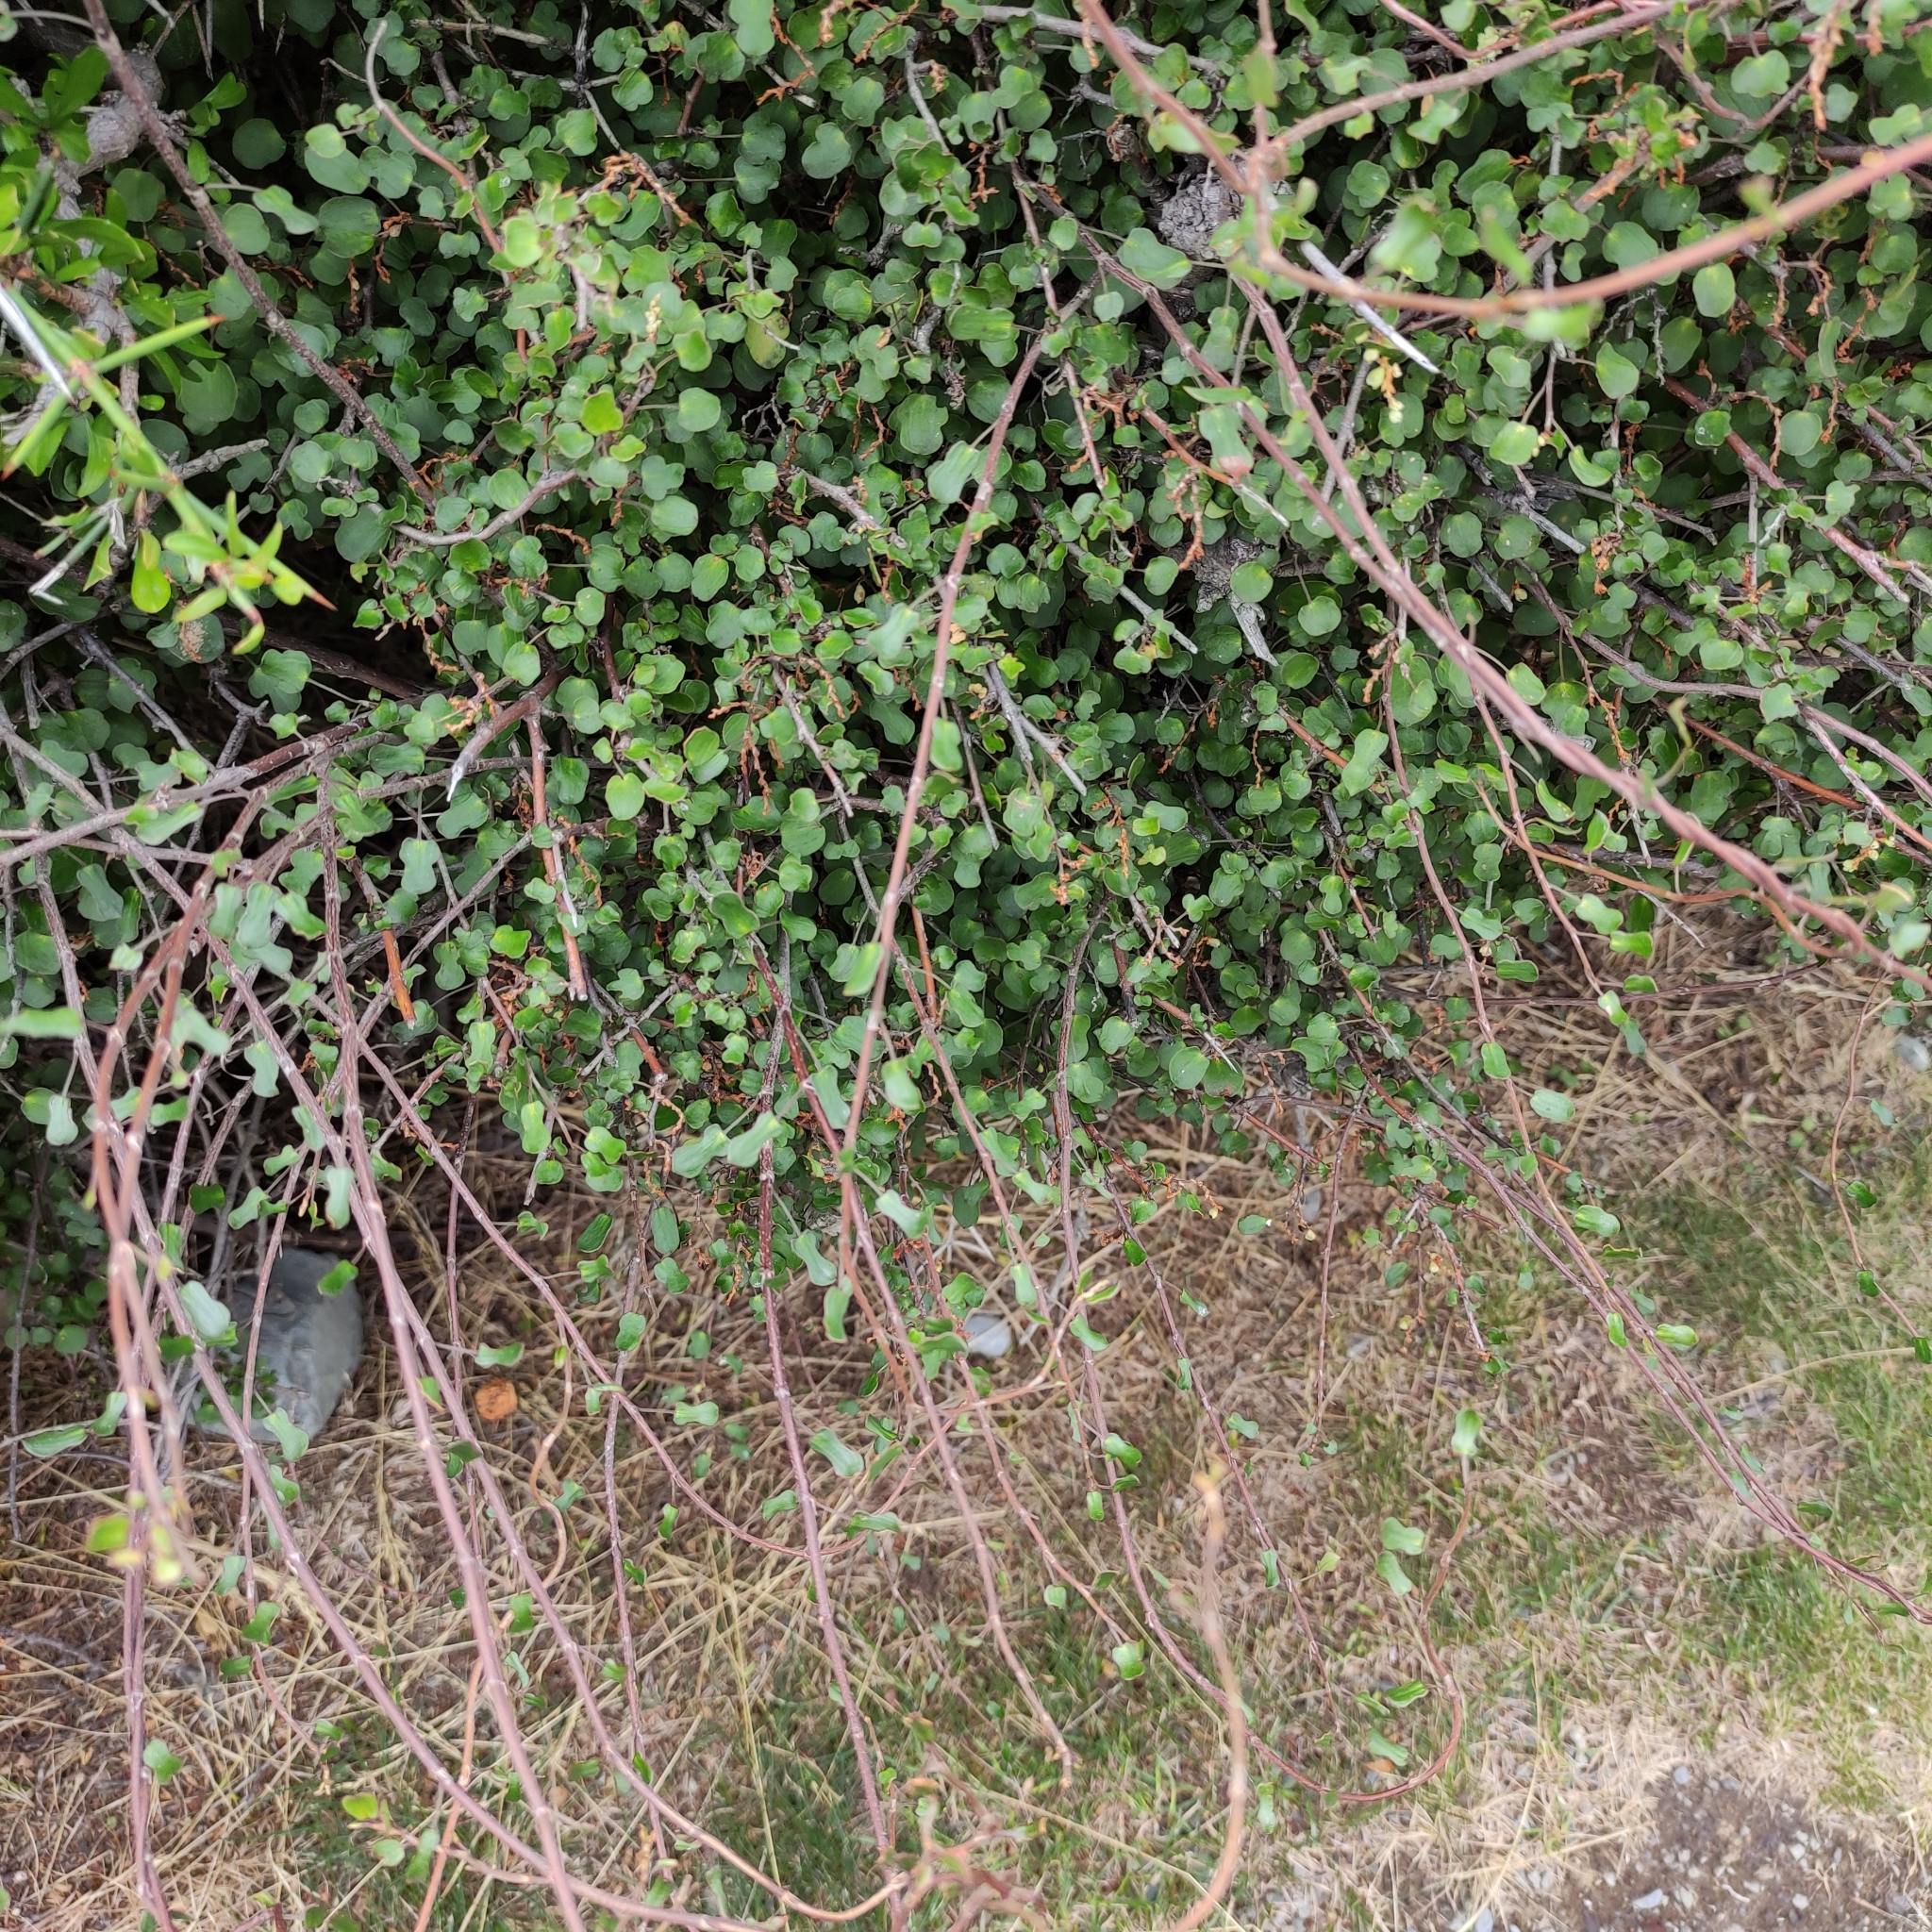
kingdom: Plantae
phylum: Tracheophyta
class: Magnoliopsida
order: Caryophyllales
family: Polygonaceae
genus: Muehlenbeckia
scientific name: Muehlenbeckia complexa
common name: Wireplant
